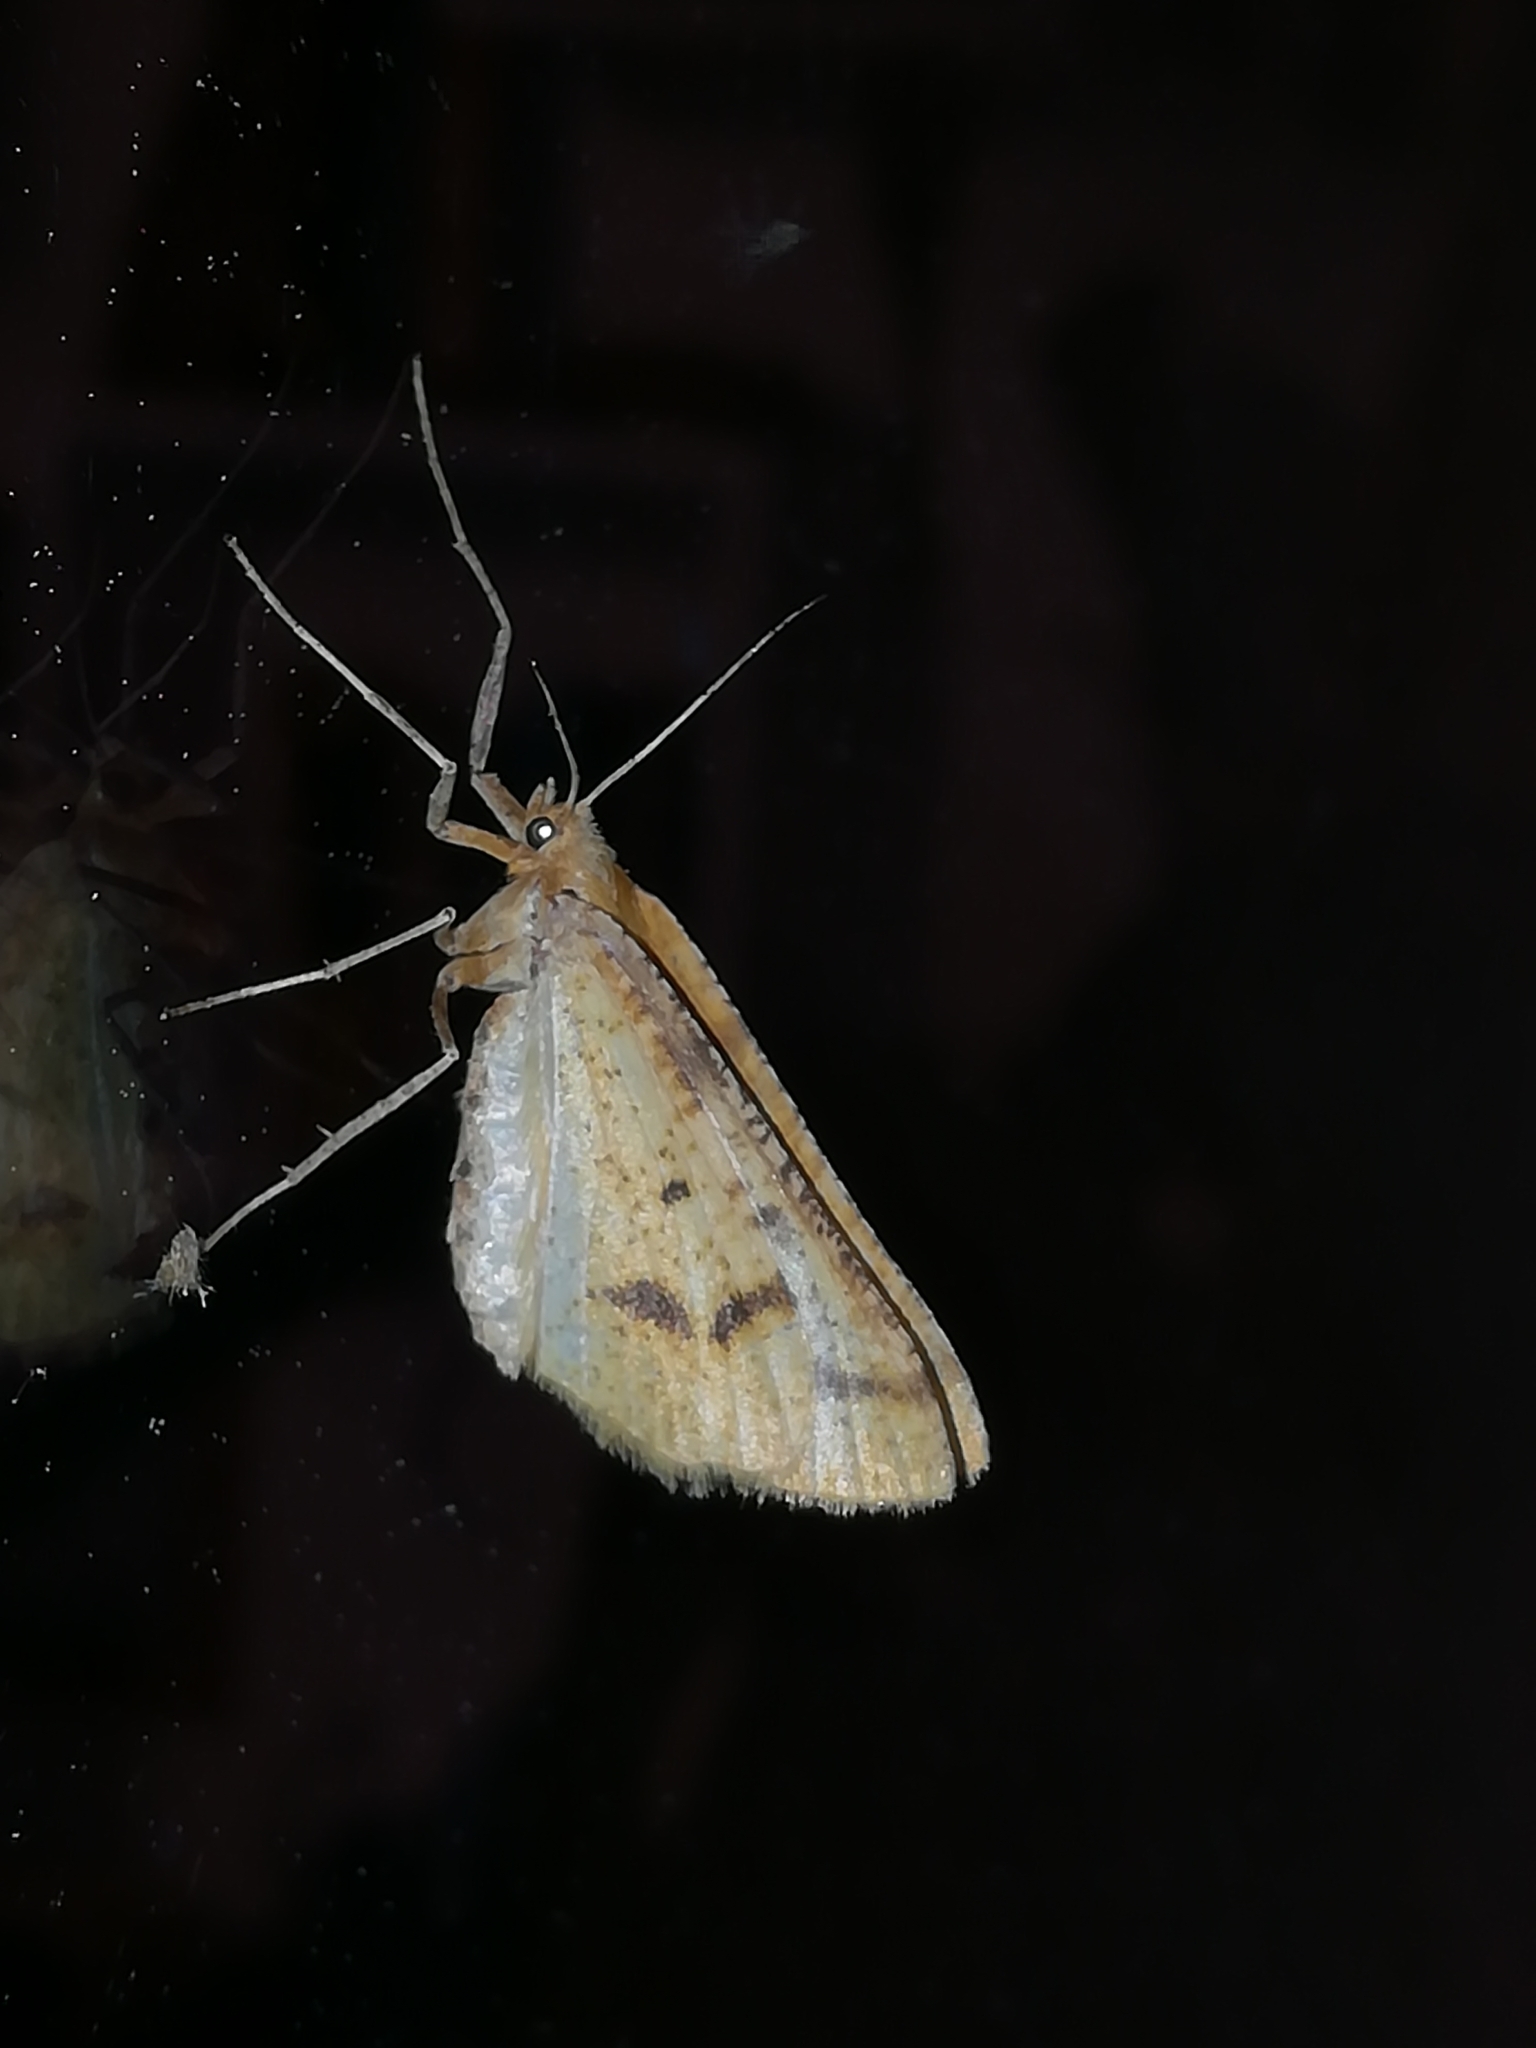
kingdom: Animalia
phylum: Arthropoda
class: Insecta
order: Lepidoptera
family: Geometridae
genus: Aspitates
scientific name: Aspitates ochrearia
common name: Yellow belle
